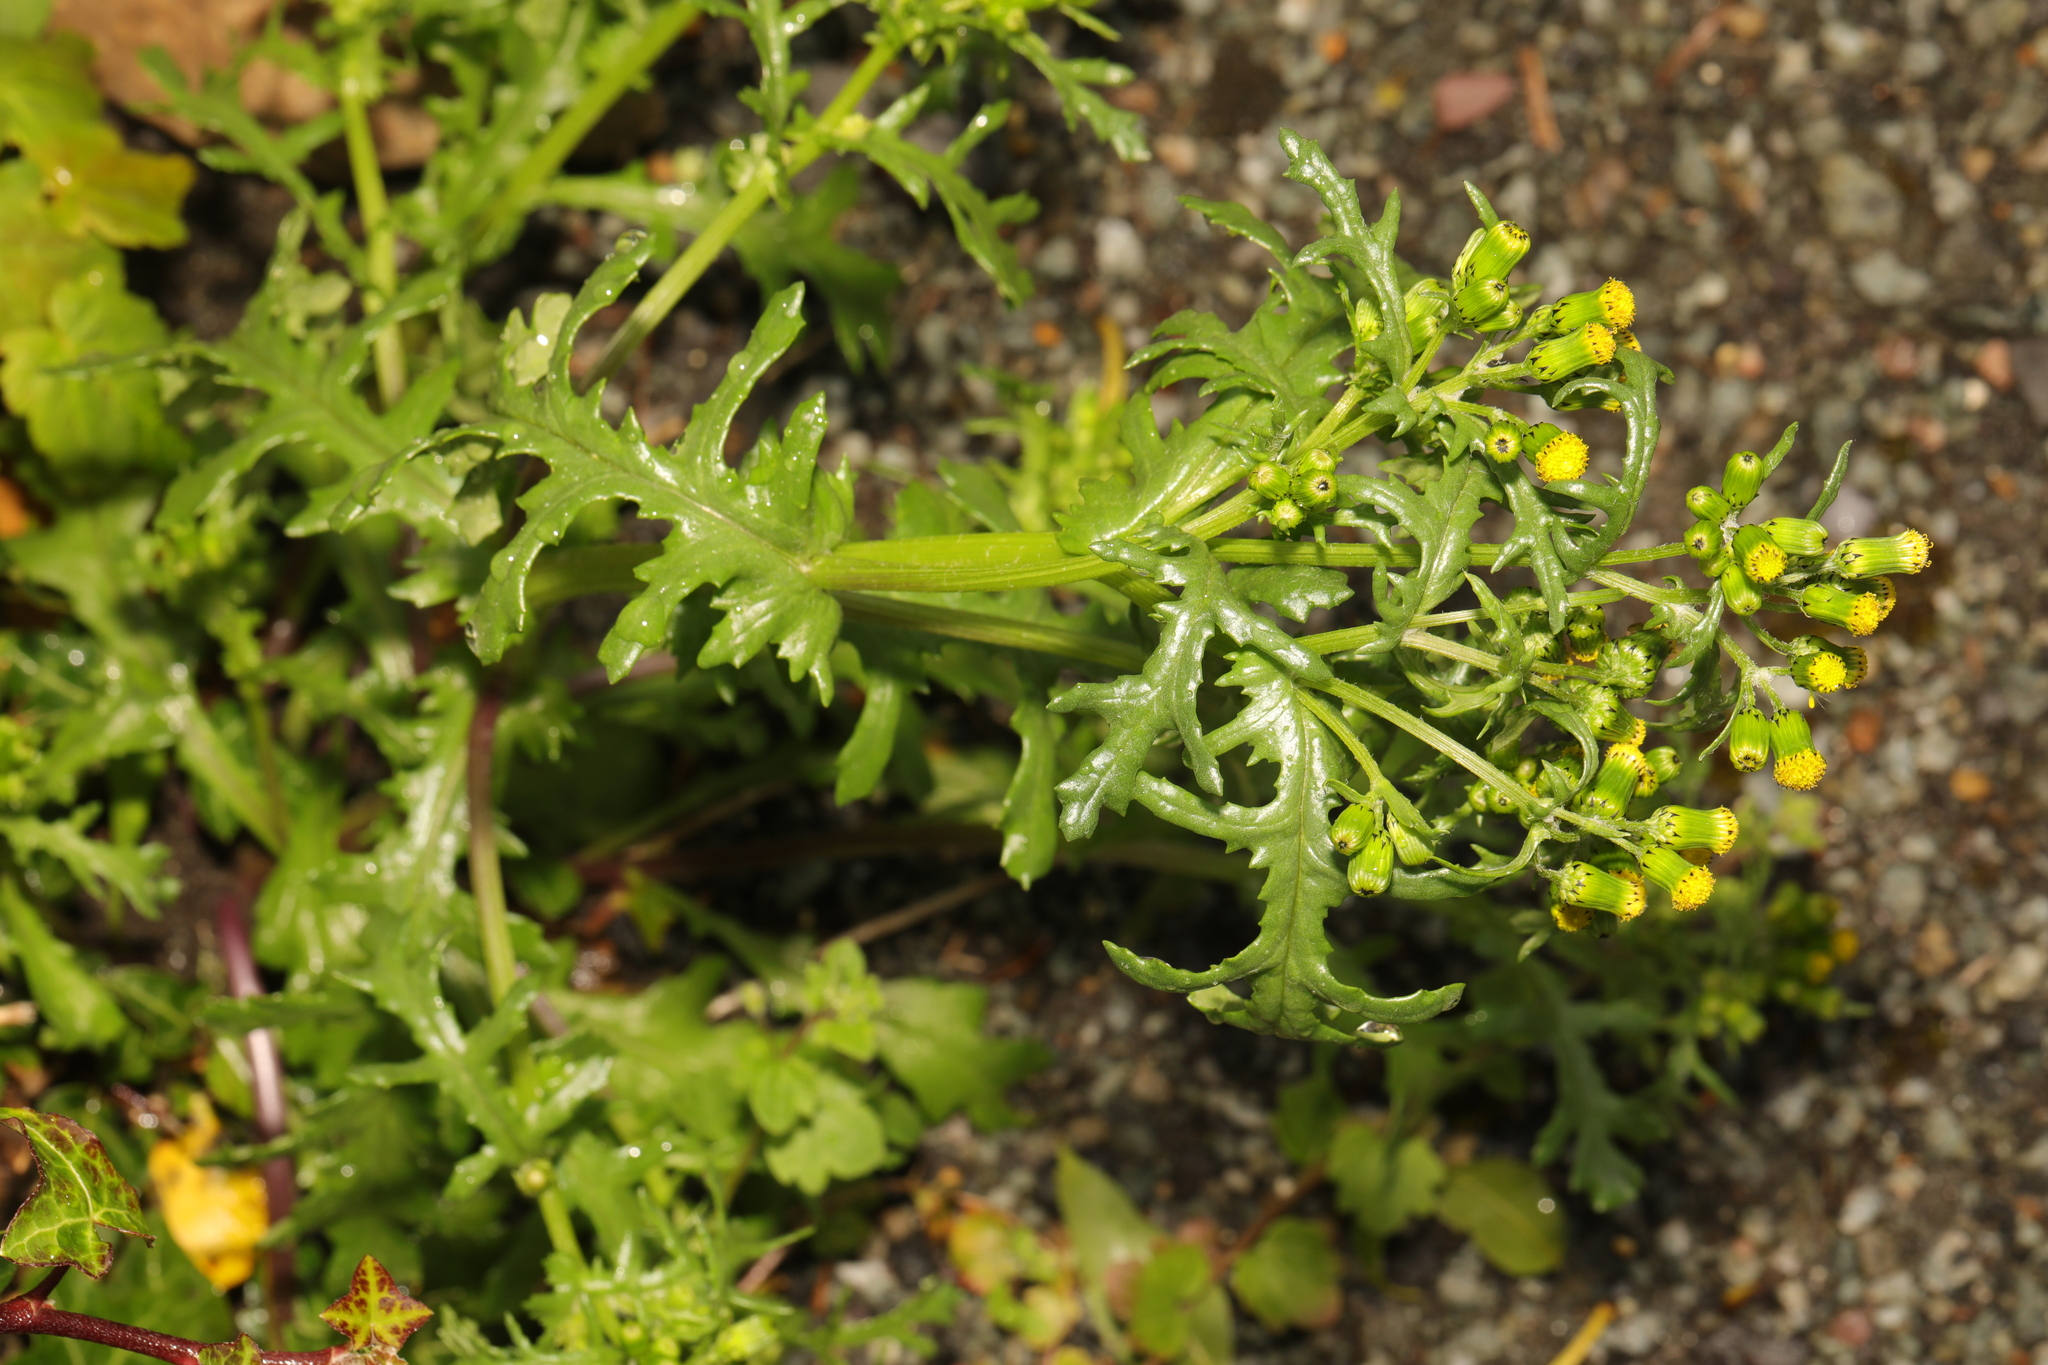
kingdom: Plantae
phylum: Tracheophyta
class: Magnoliopsida
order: Asterales
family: Asteraceae
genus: Senecio
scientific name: Senecio vulgaris
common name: Old-man-in-the-spring
